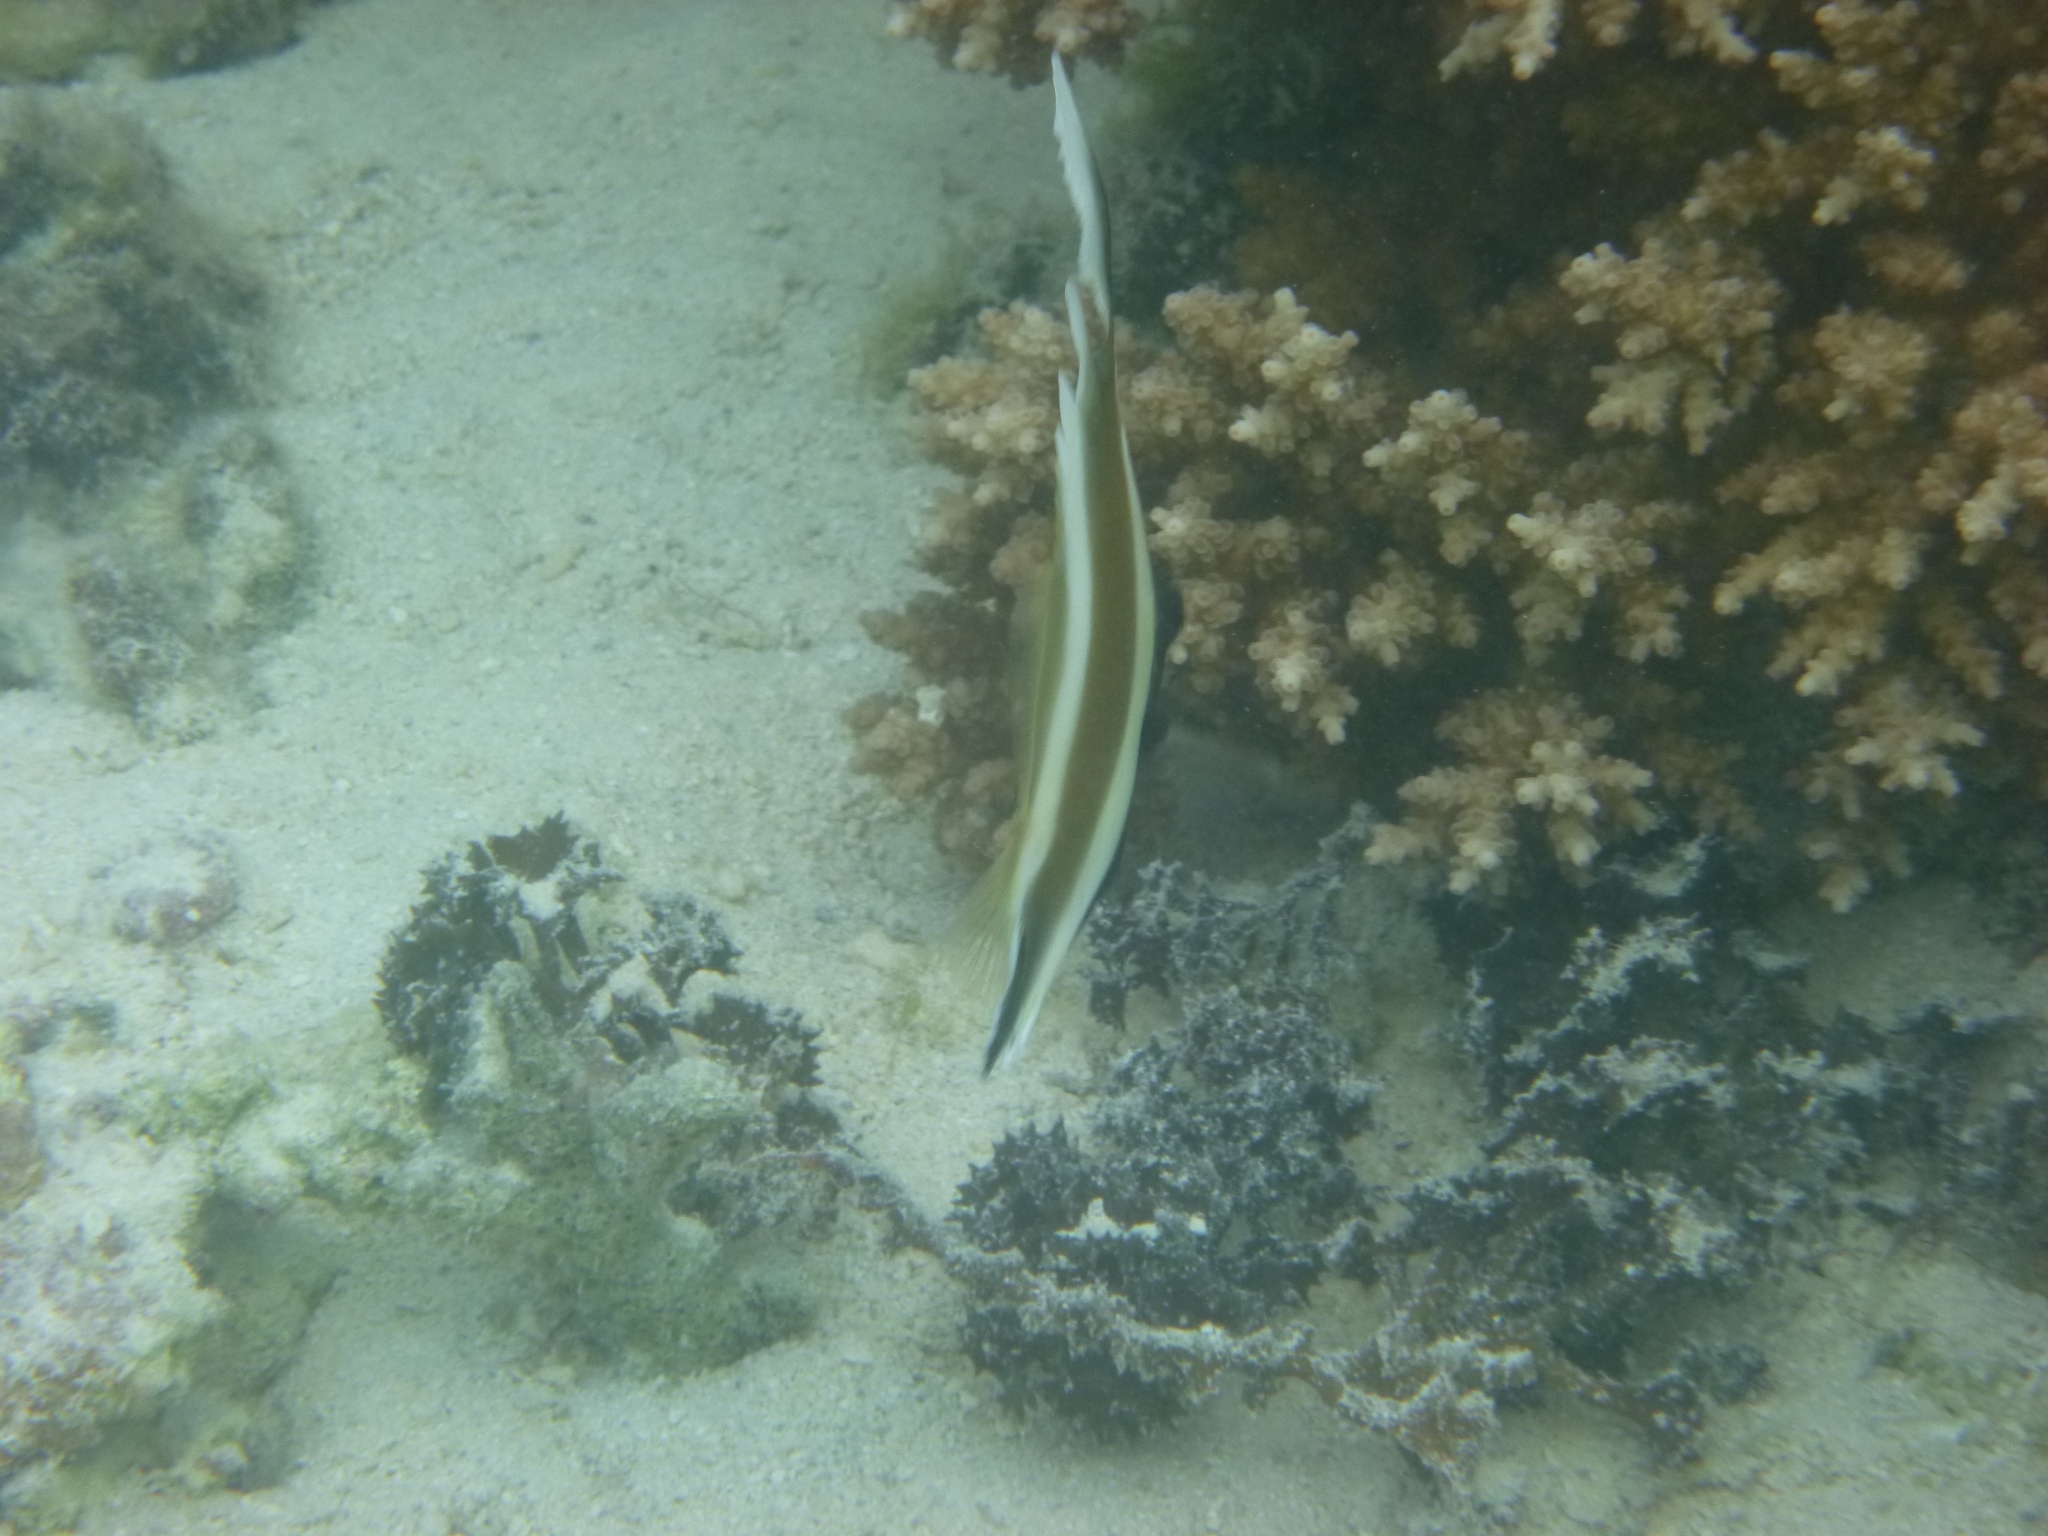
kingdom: Animalia
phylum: Chordata
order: Perciformes
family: Chaetodontidae
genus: Heniochus
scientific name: Heniochus chrysostomus
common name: Horned bannerfish
